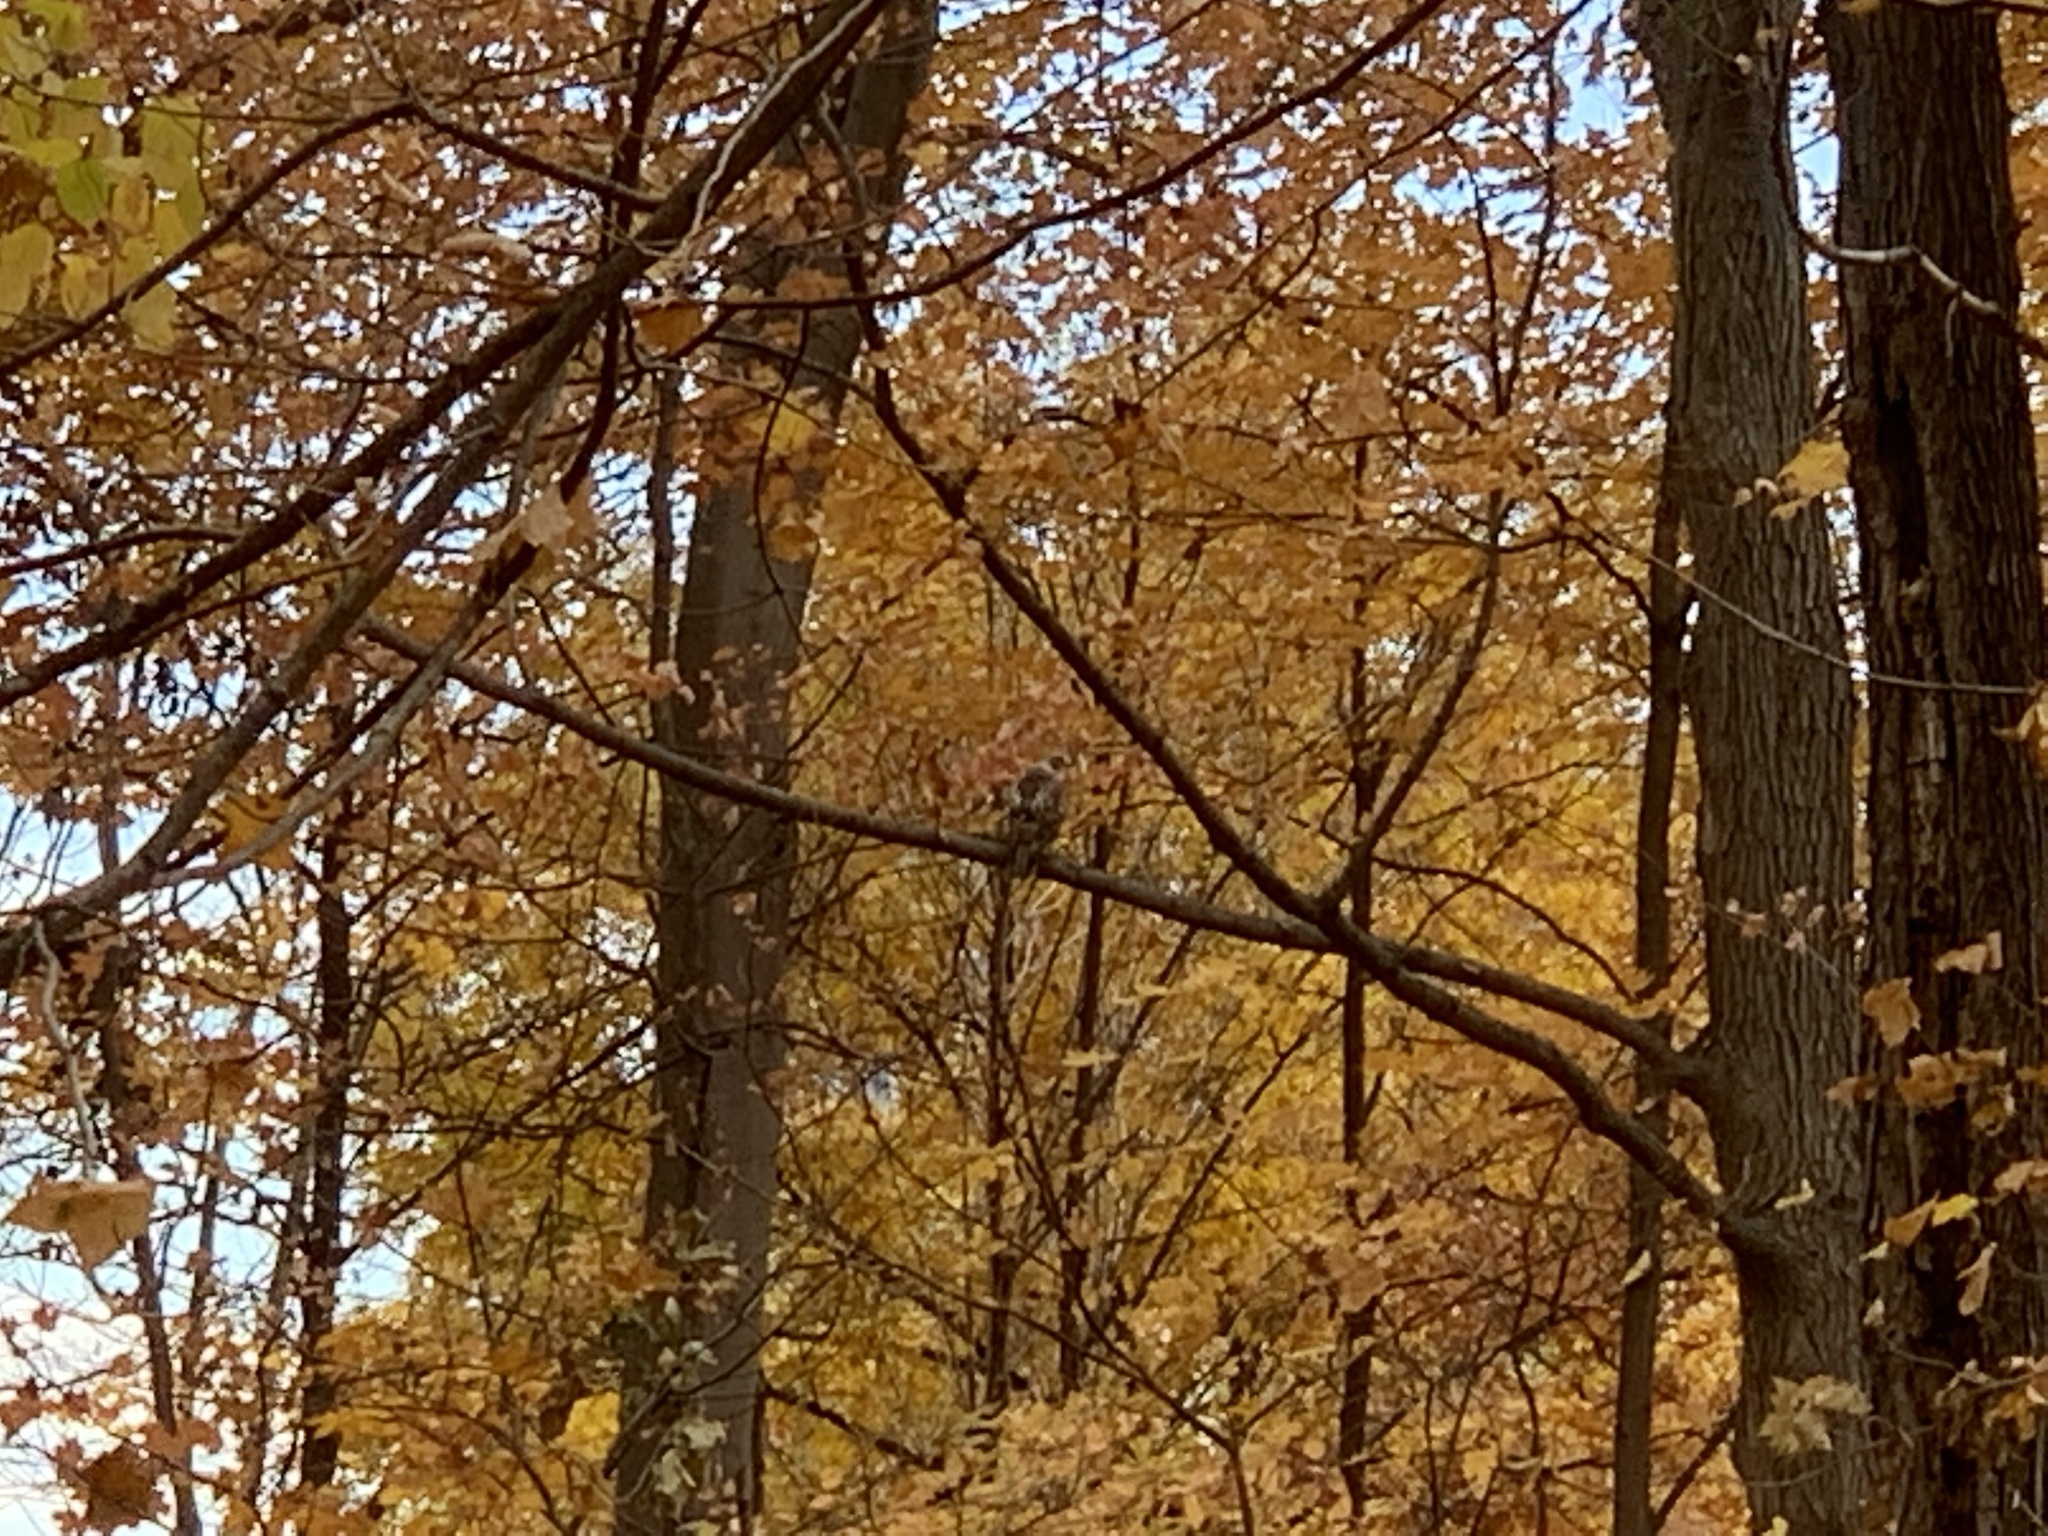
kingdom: Animalia
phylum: Chordata
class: Aves
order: Accipitriformes
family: Accipitridae
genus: Buteo
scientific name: Buteo jamaicensis
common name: Red-tailed hawk
